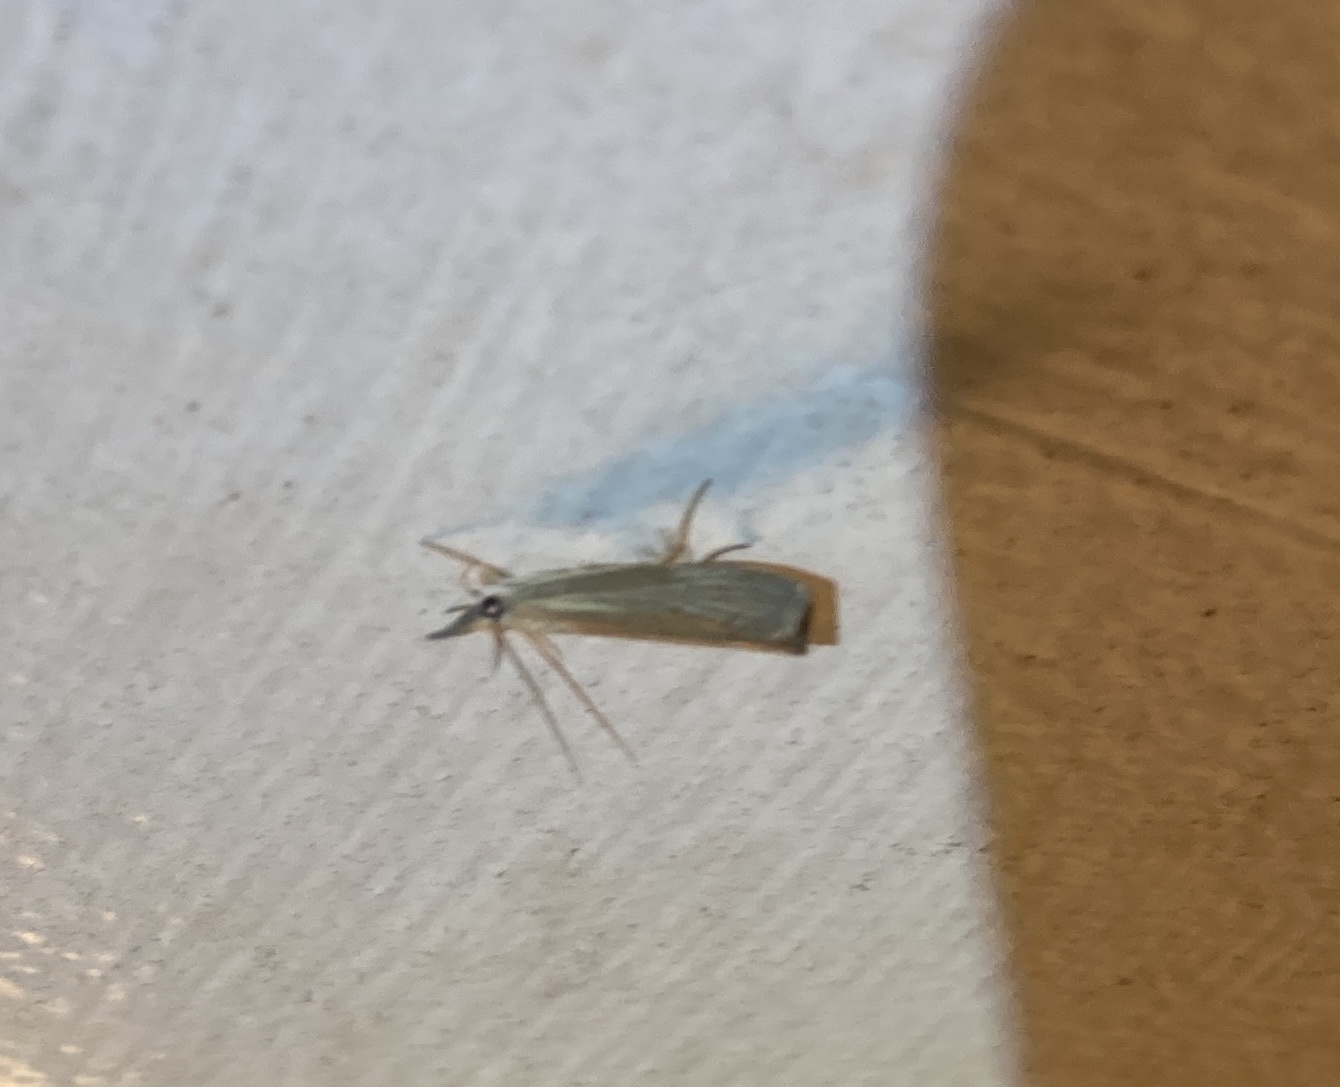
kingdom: Animalia
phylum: Arthropoda
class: Insecta
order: Lepidoptera
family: Crambidae
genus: Culladia
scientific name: Culladia cuneiferellus
